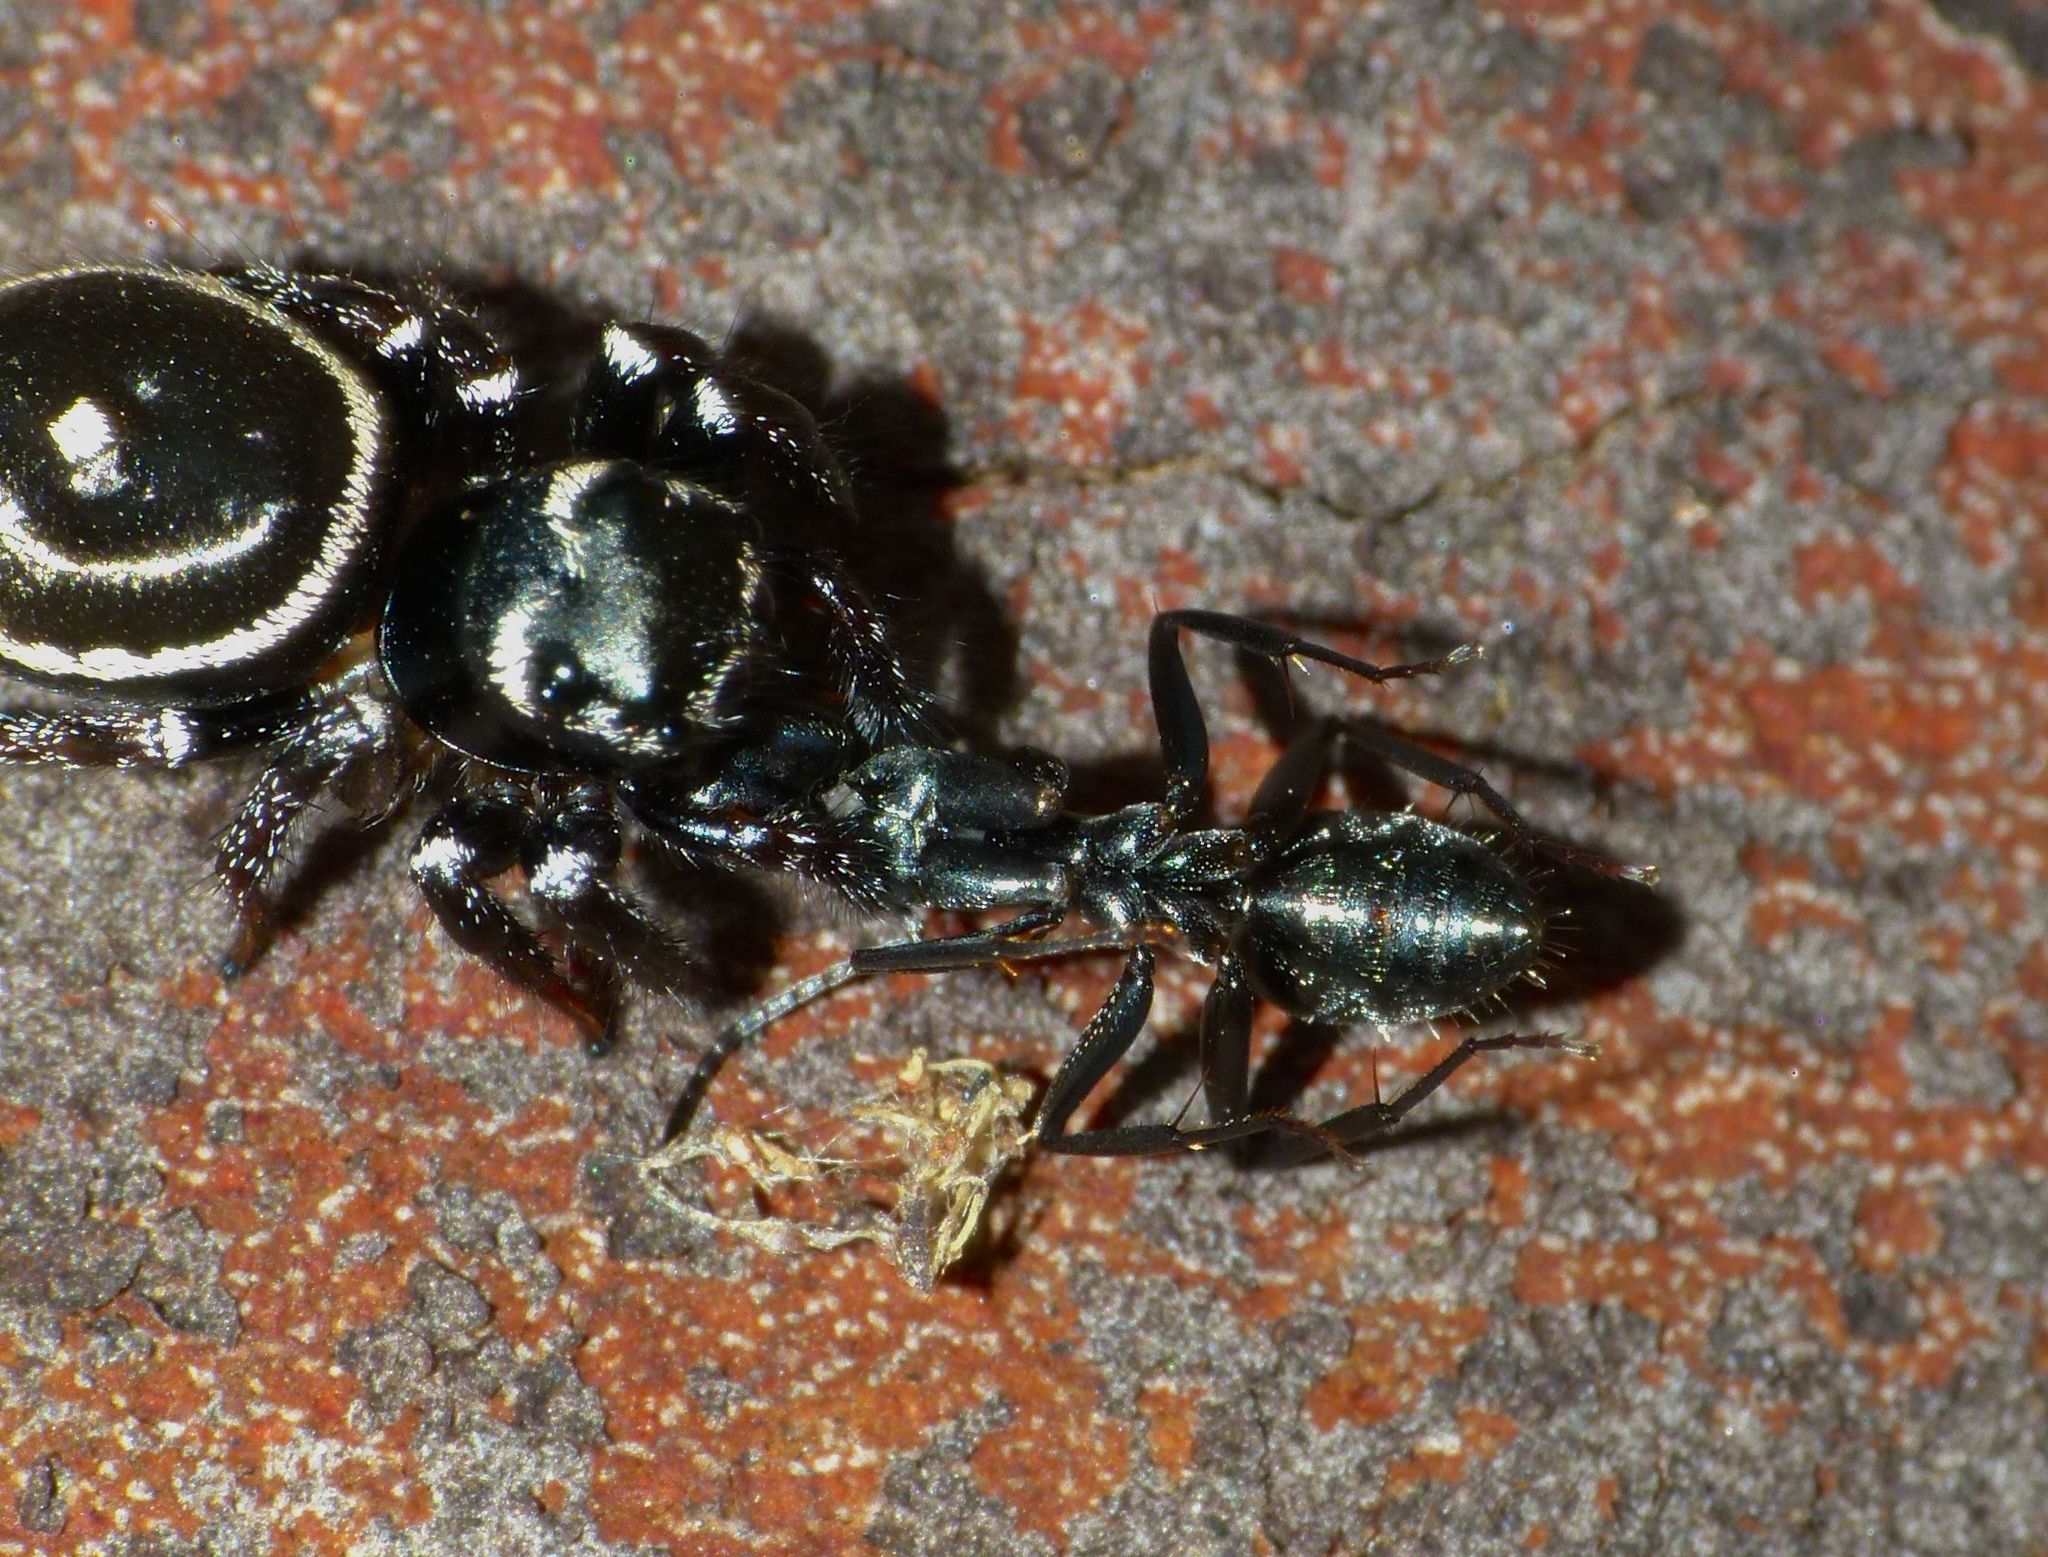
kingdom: Animalia
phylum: Arthropoda
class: Arachnida
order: Araneae
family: Salticidae
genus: Zenodorus
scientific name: Zenodorus orbiculatus
